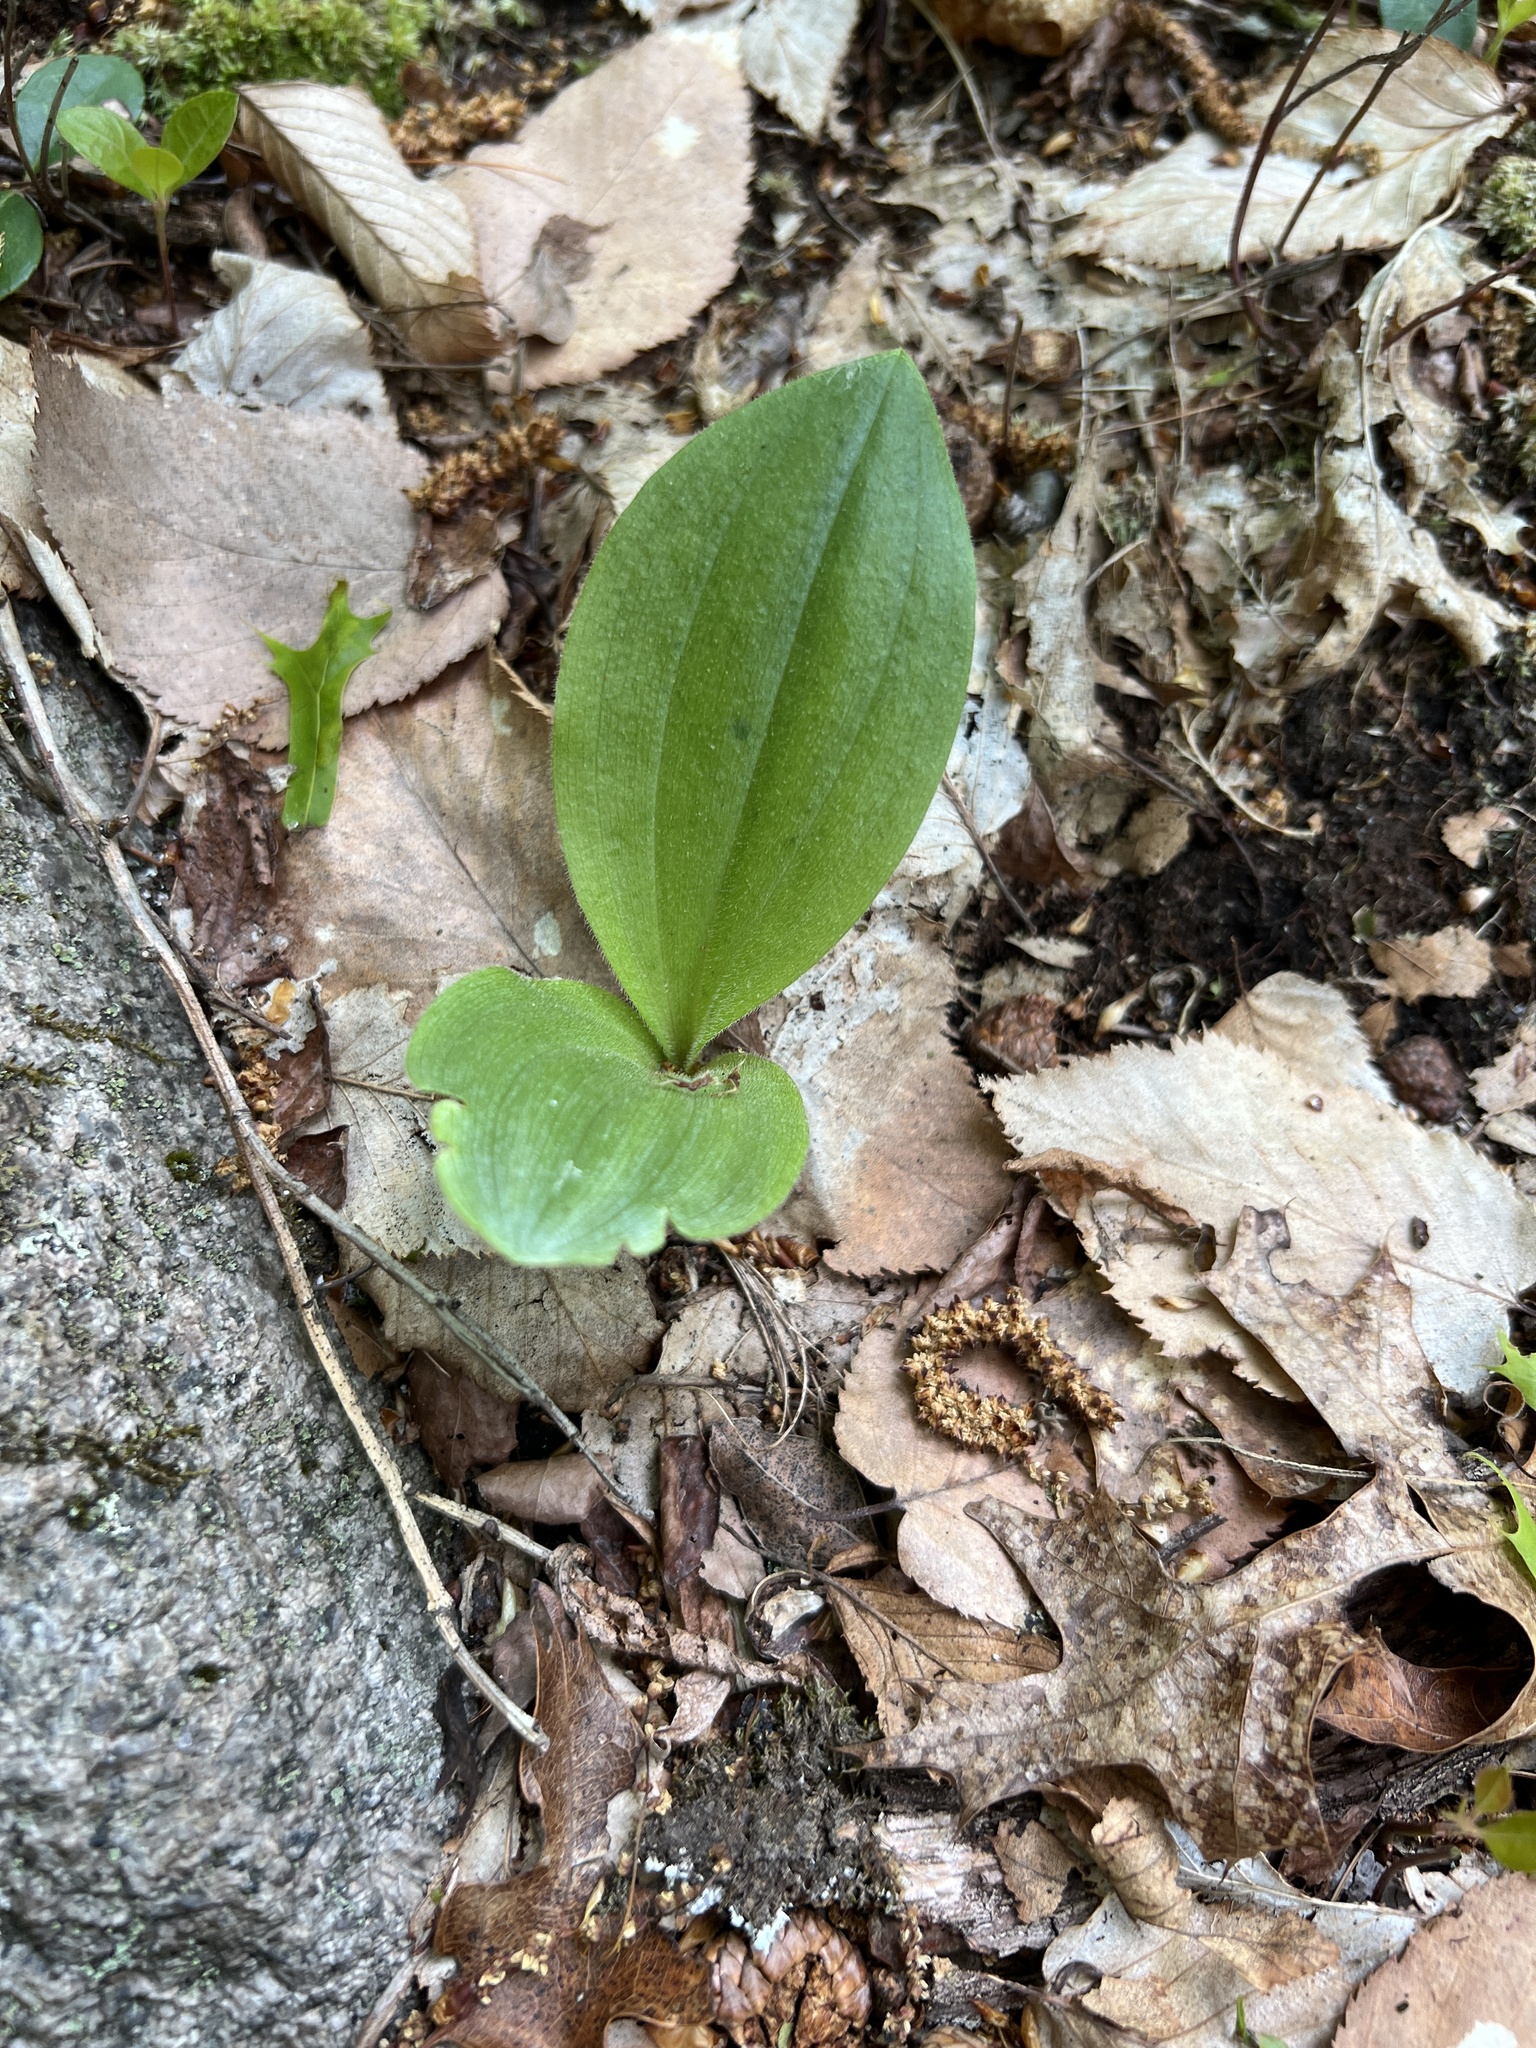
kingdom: Plantae
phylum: Tracheophyta
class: Liliopsida
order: Asparagales
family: Orchidaceae
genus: Cypripedium
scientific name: Cypripedium acaule
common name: Pink lady's-slipper
